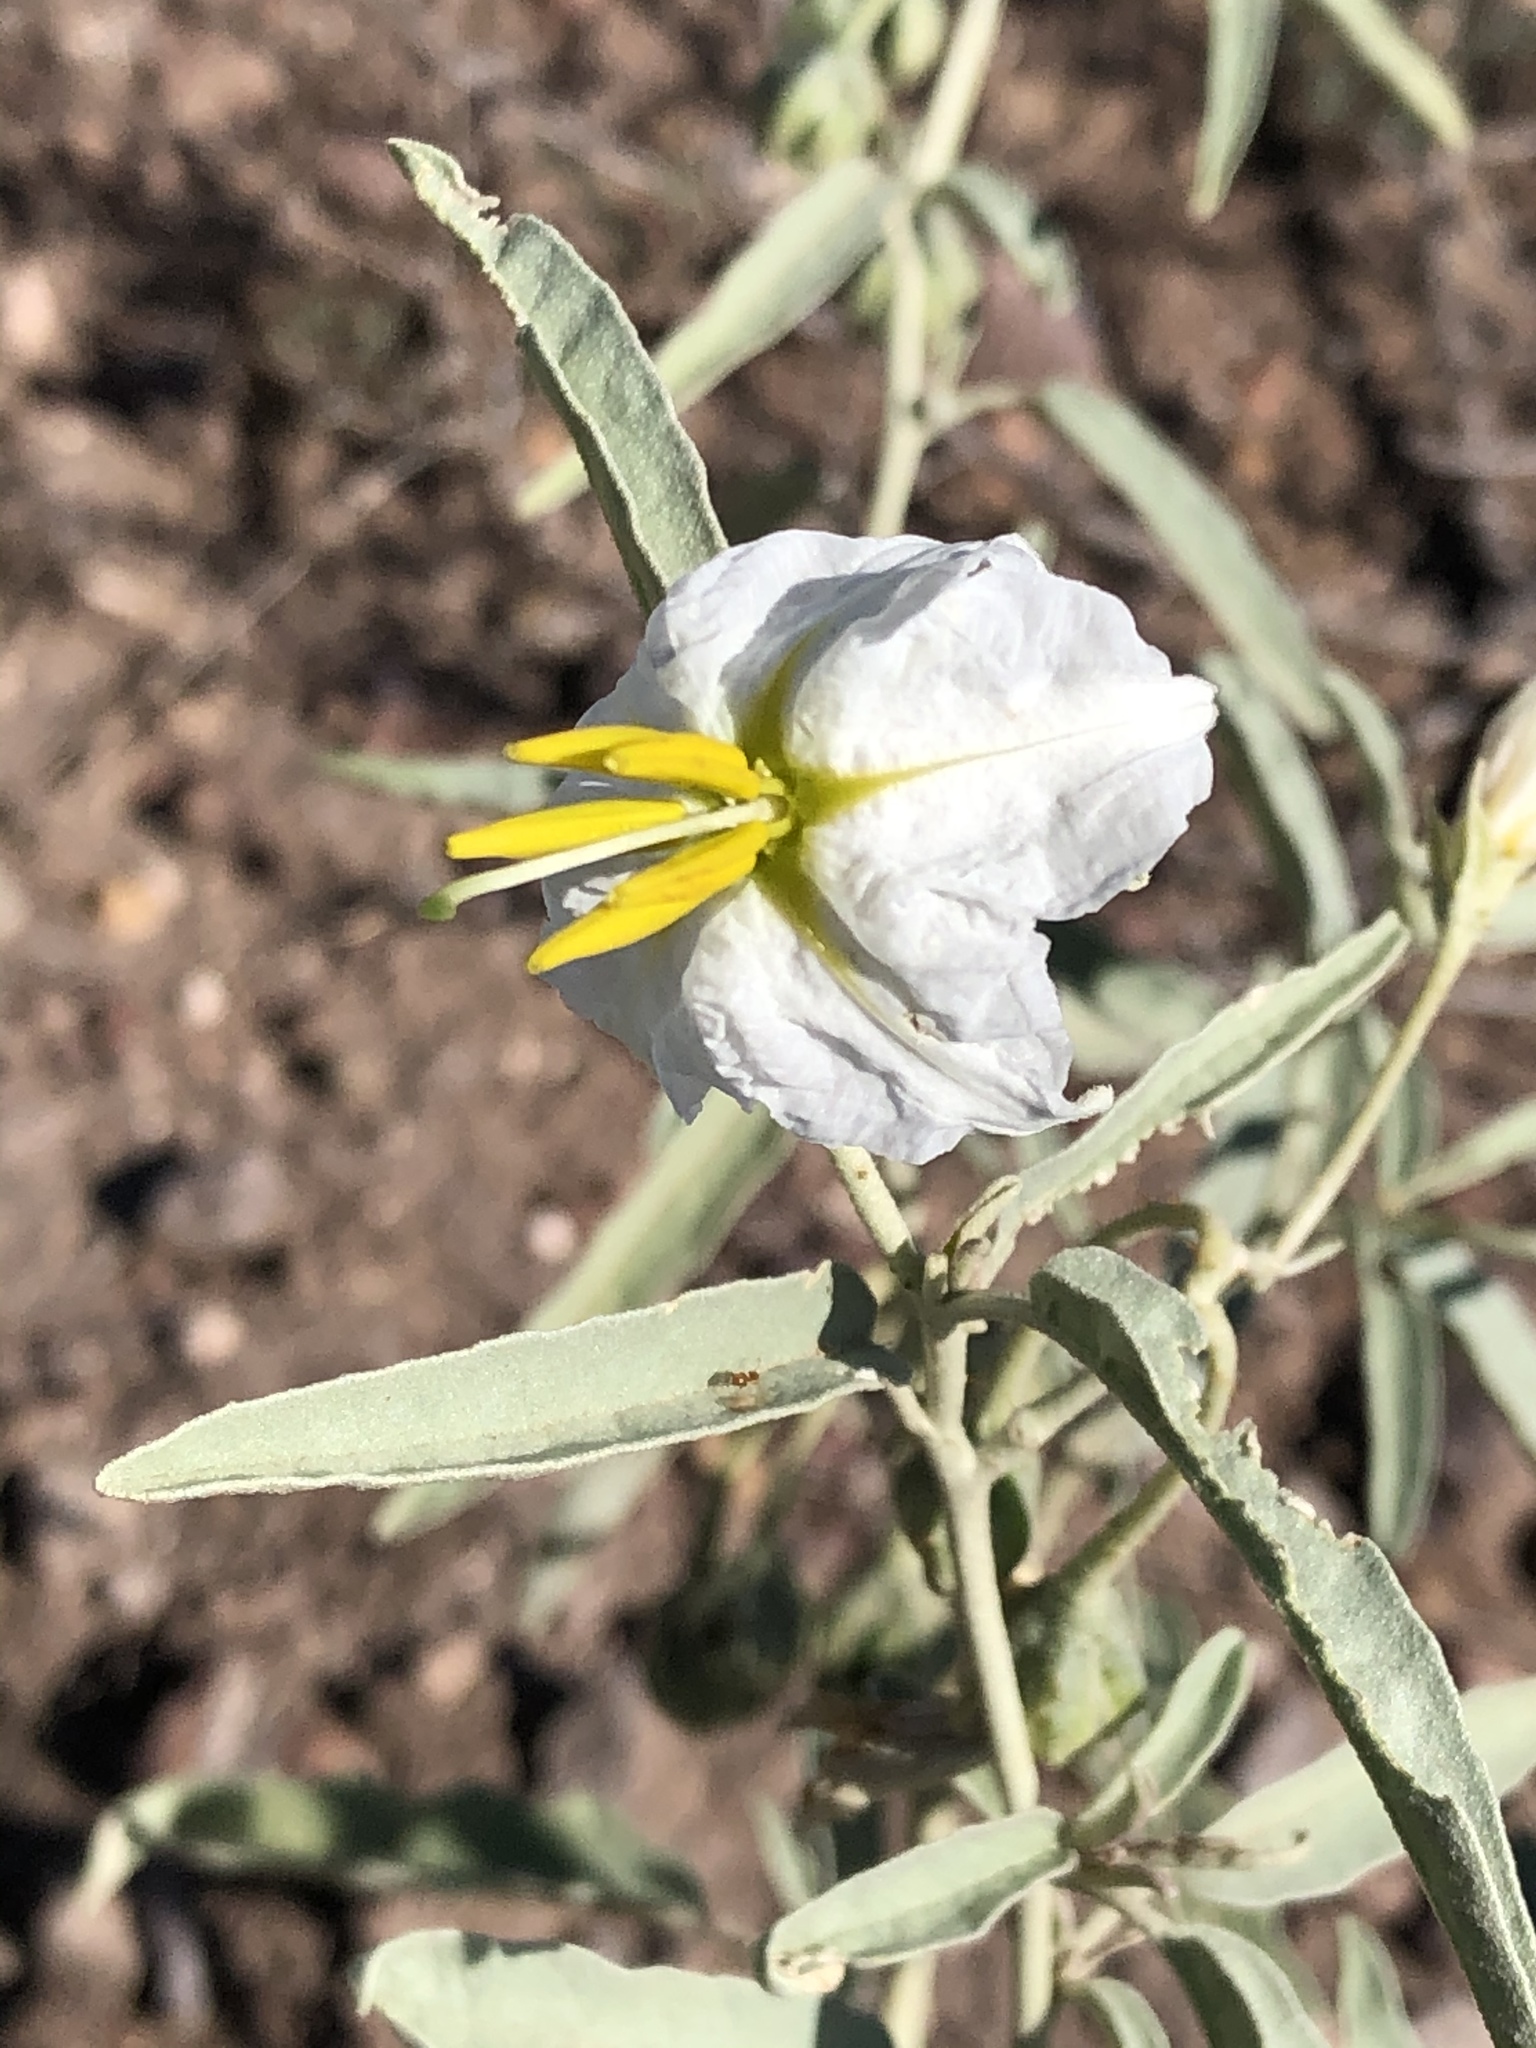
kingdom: Plantae
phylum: Tracheophyta
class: Magnoliopsida
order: Solanales
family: Solanaceae
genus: Solanum
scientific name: Solanum elaeagnifolium
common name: Silverleaf nightshade
